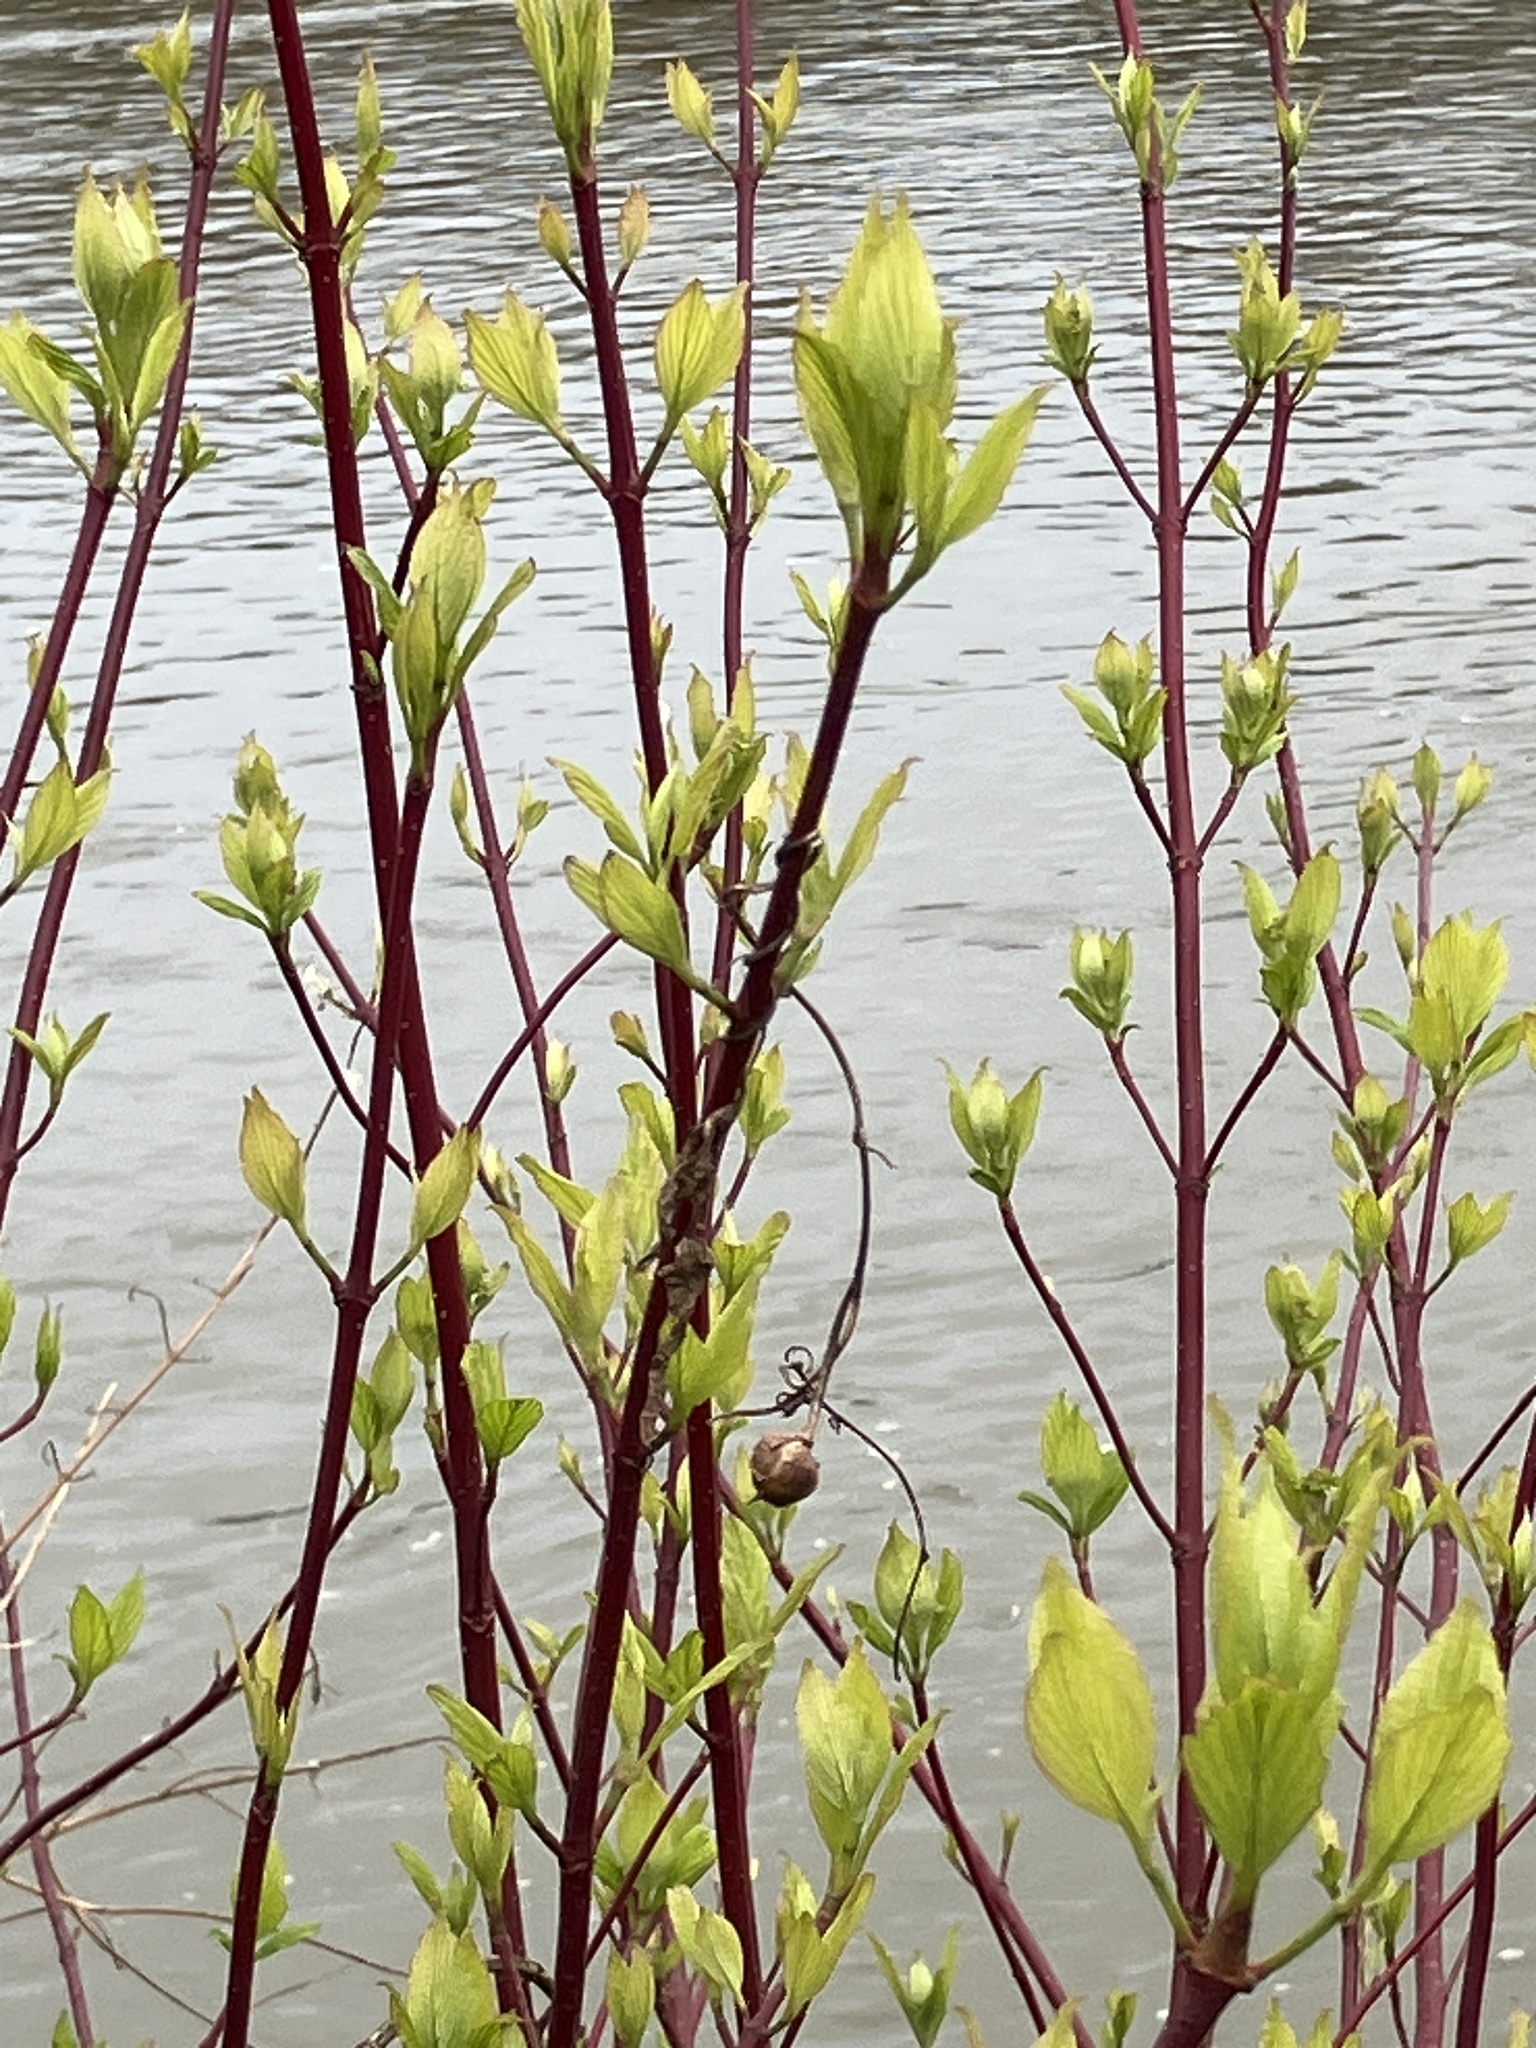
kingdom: Plantae
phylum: Tracheophyta
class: Magnoliopsida
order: Cornales
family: Cornaceae
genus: Cornus
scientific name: Cornus sericea
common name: Red-osier dogwood
